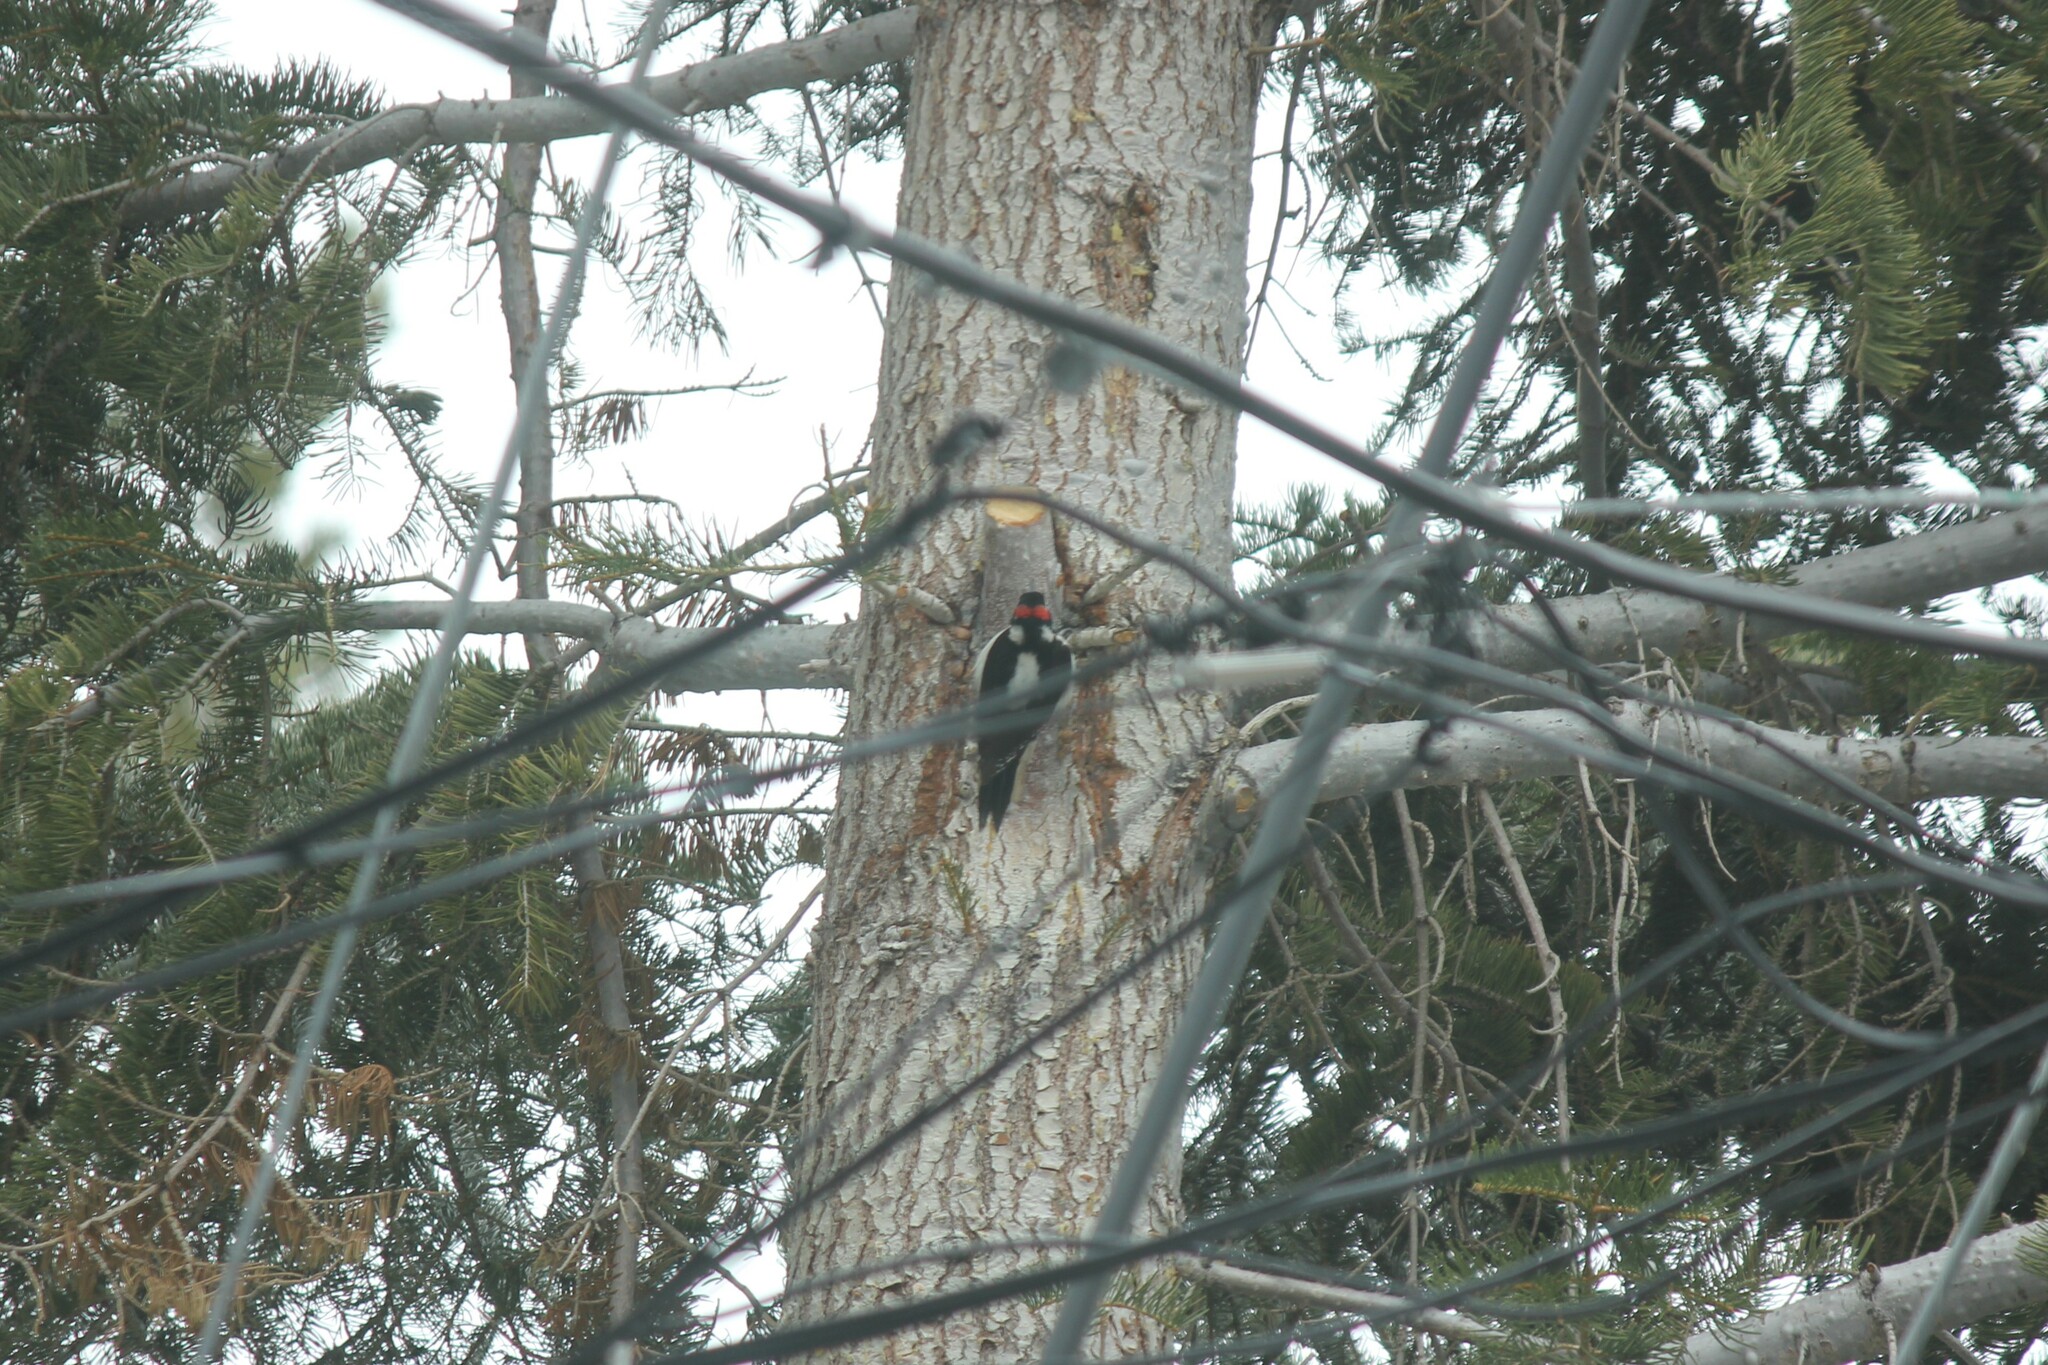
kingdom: Animalia
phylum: Chordata
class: Aves
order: Piciformes
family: Picidae
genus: Leuconotopicus
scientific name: Leuconotopicus villosus
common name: Hairy woodpecker
